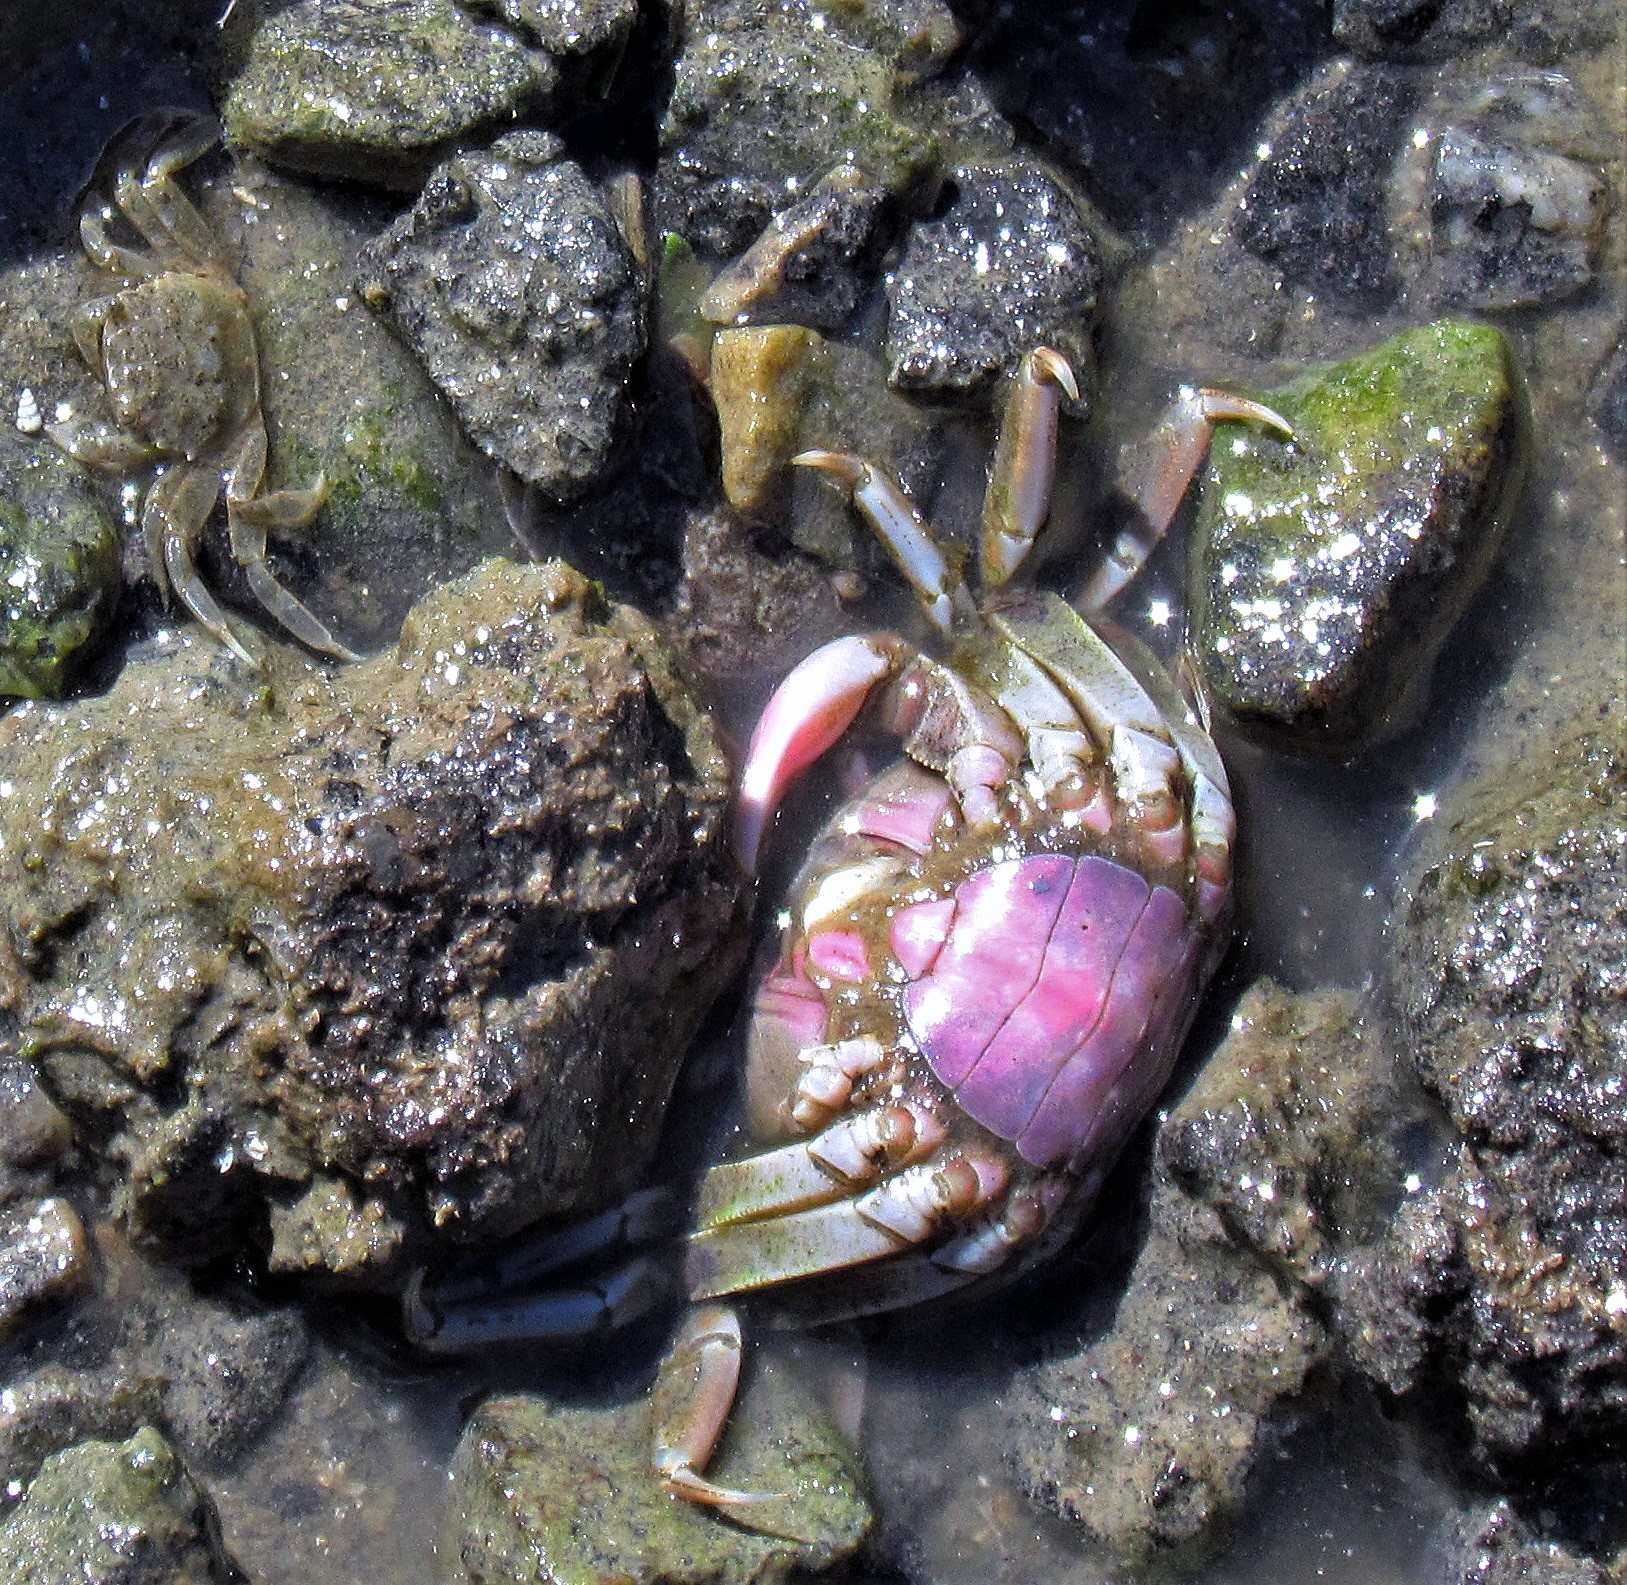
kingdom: Animalia
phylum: Arthropoda
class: Malacostraca
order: Decapoda
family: Varunidae
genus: Neohelice
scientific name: Neohelice granulata
